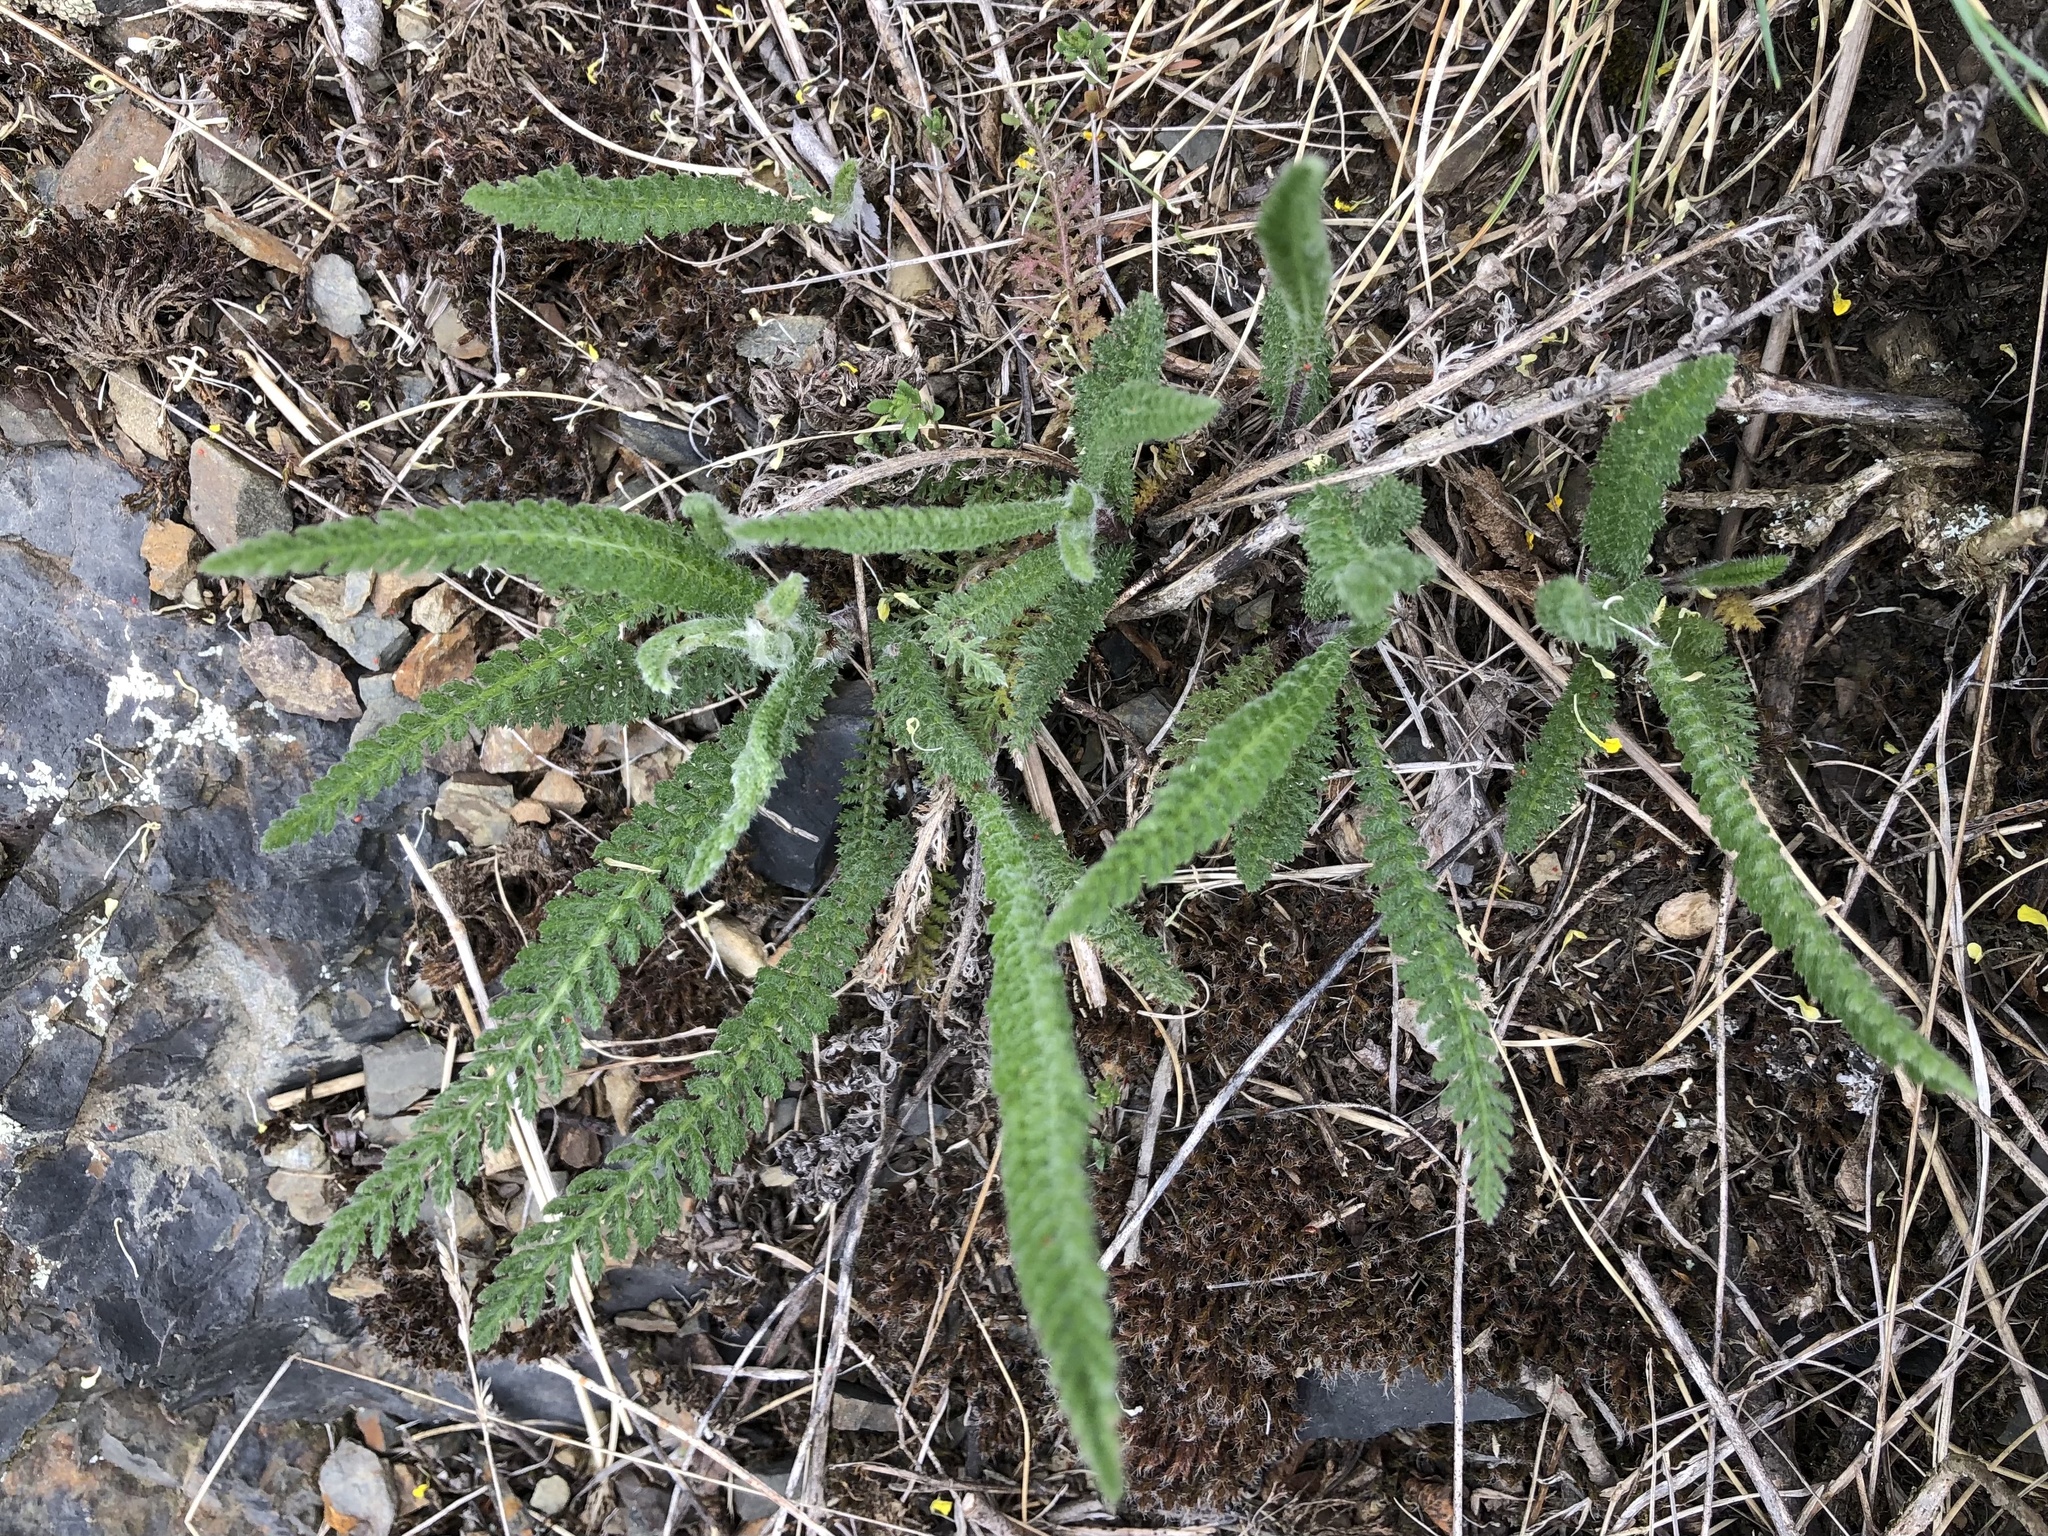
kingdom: Plantae
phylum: Tracheophyta
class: Magnoliopsida
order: Asterales
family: Asteraceae
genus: Achillea
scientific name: Achillea millefolium
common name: Yarrow
